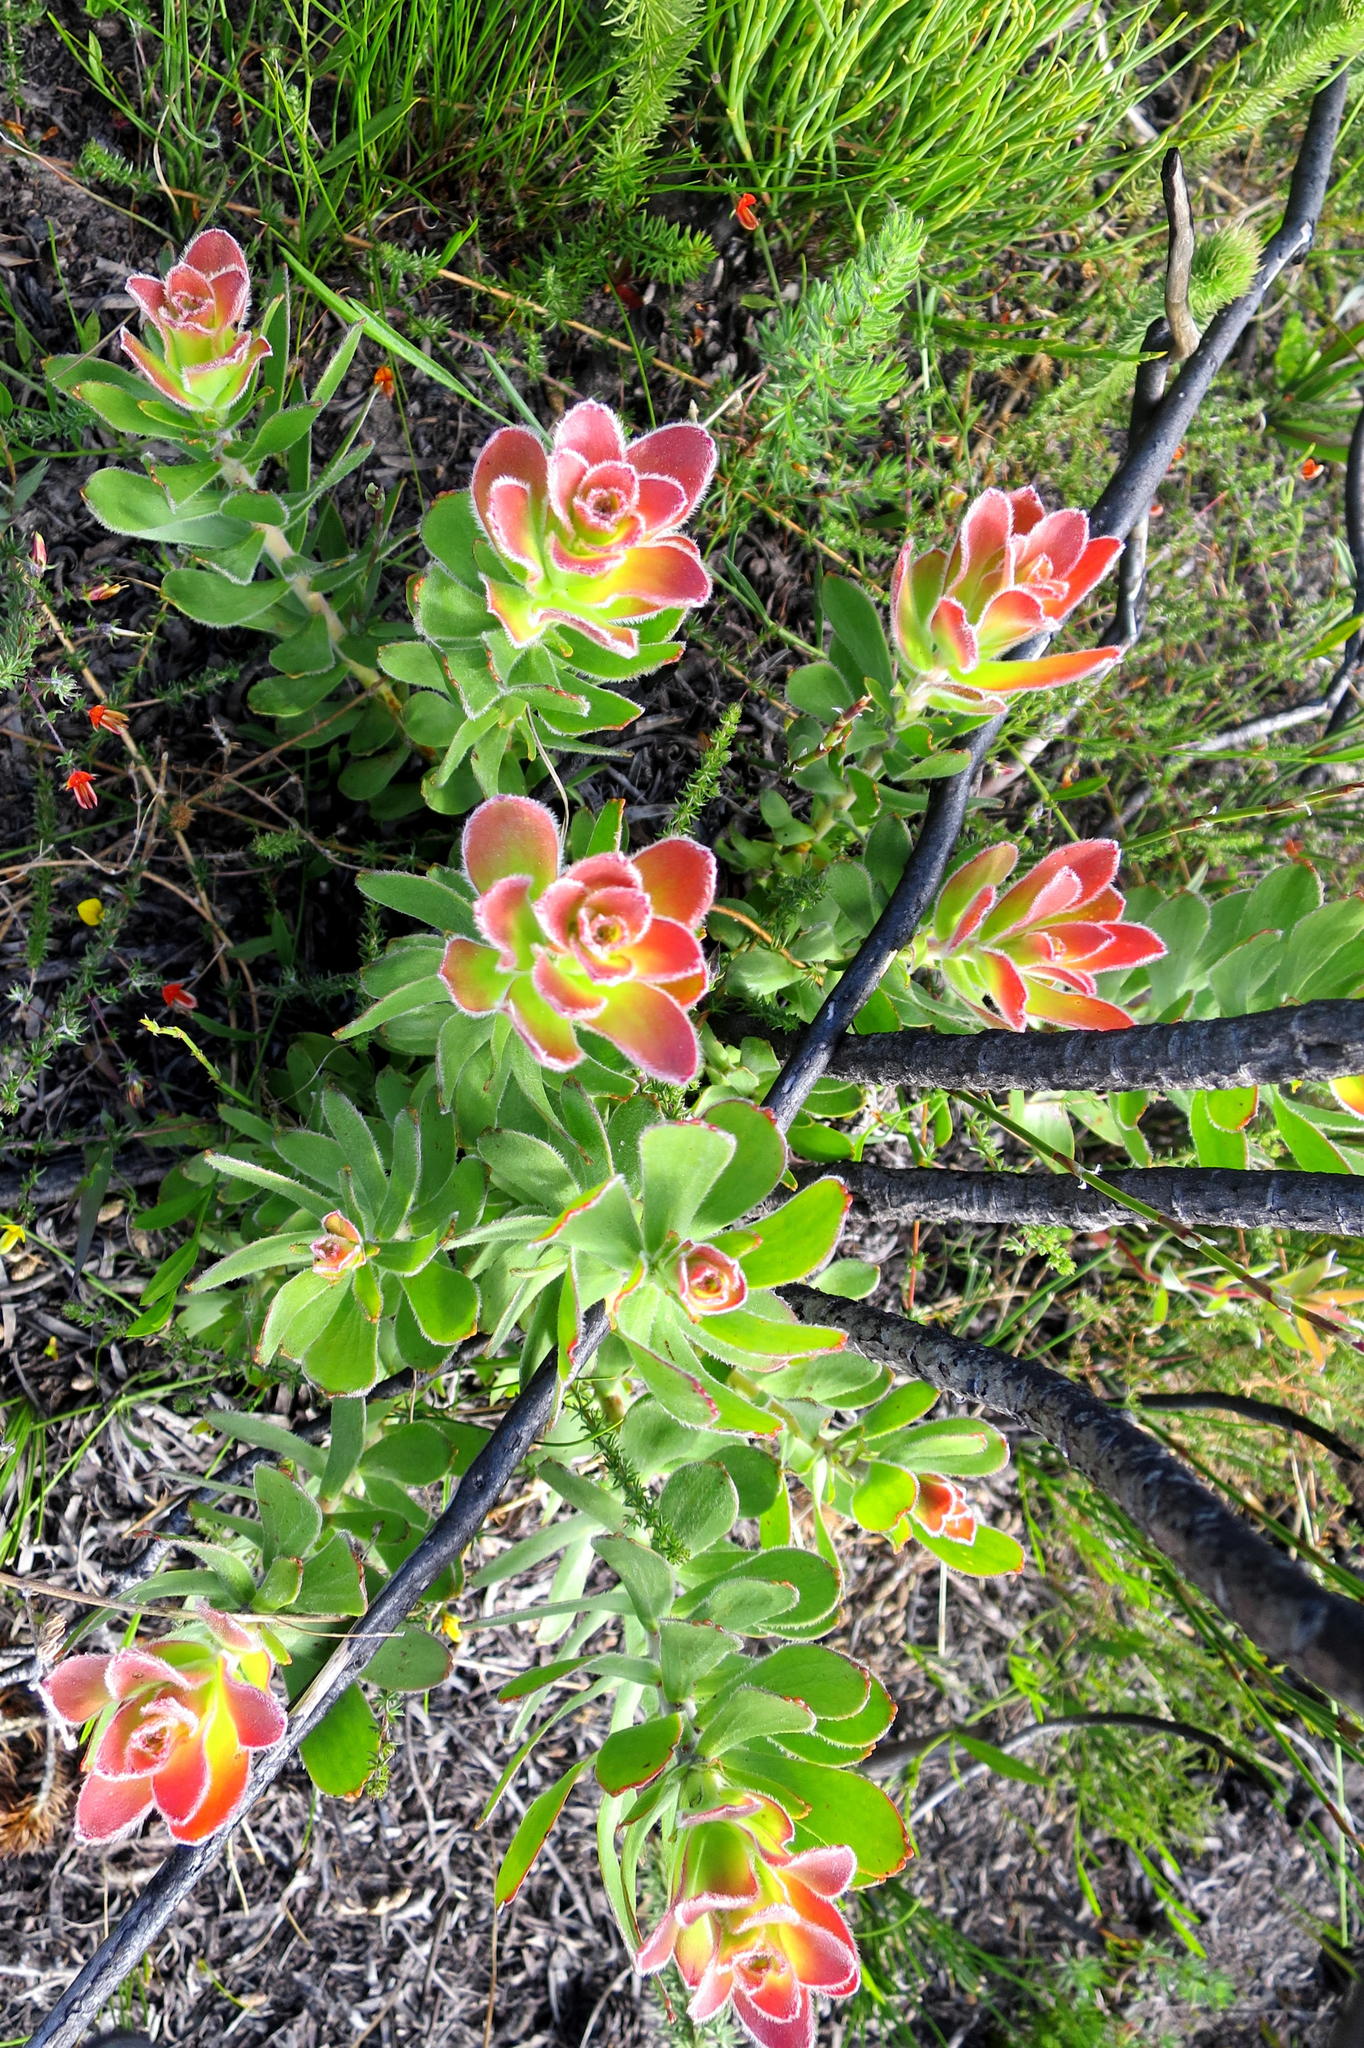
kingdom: Plantae
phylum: Tracheophyta
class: Magnoliopsida
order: Proteales
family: Proteaceae
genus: Mimetes
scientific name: Mimetes cucullatus
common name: Common pagoda
